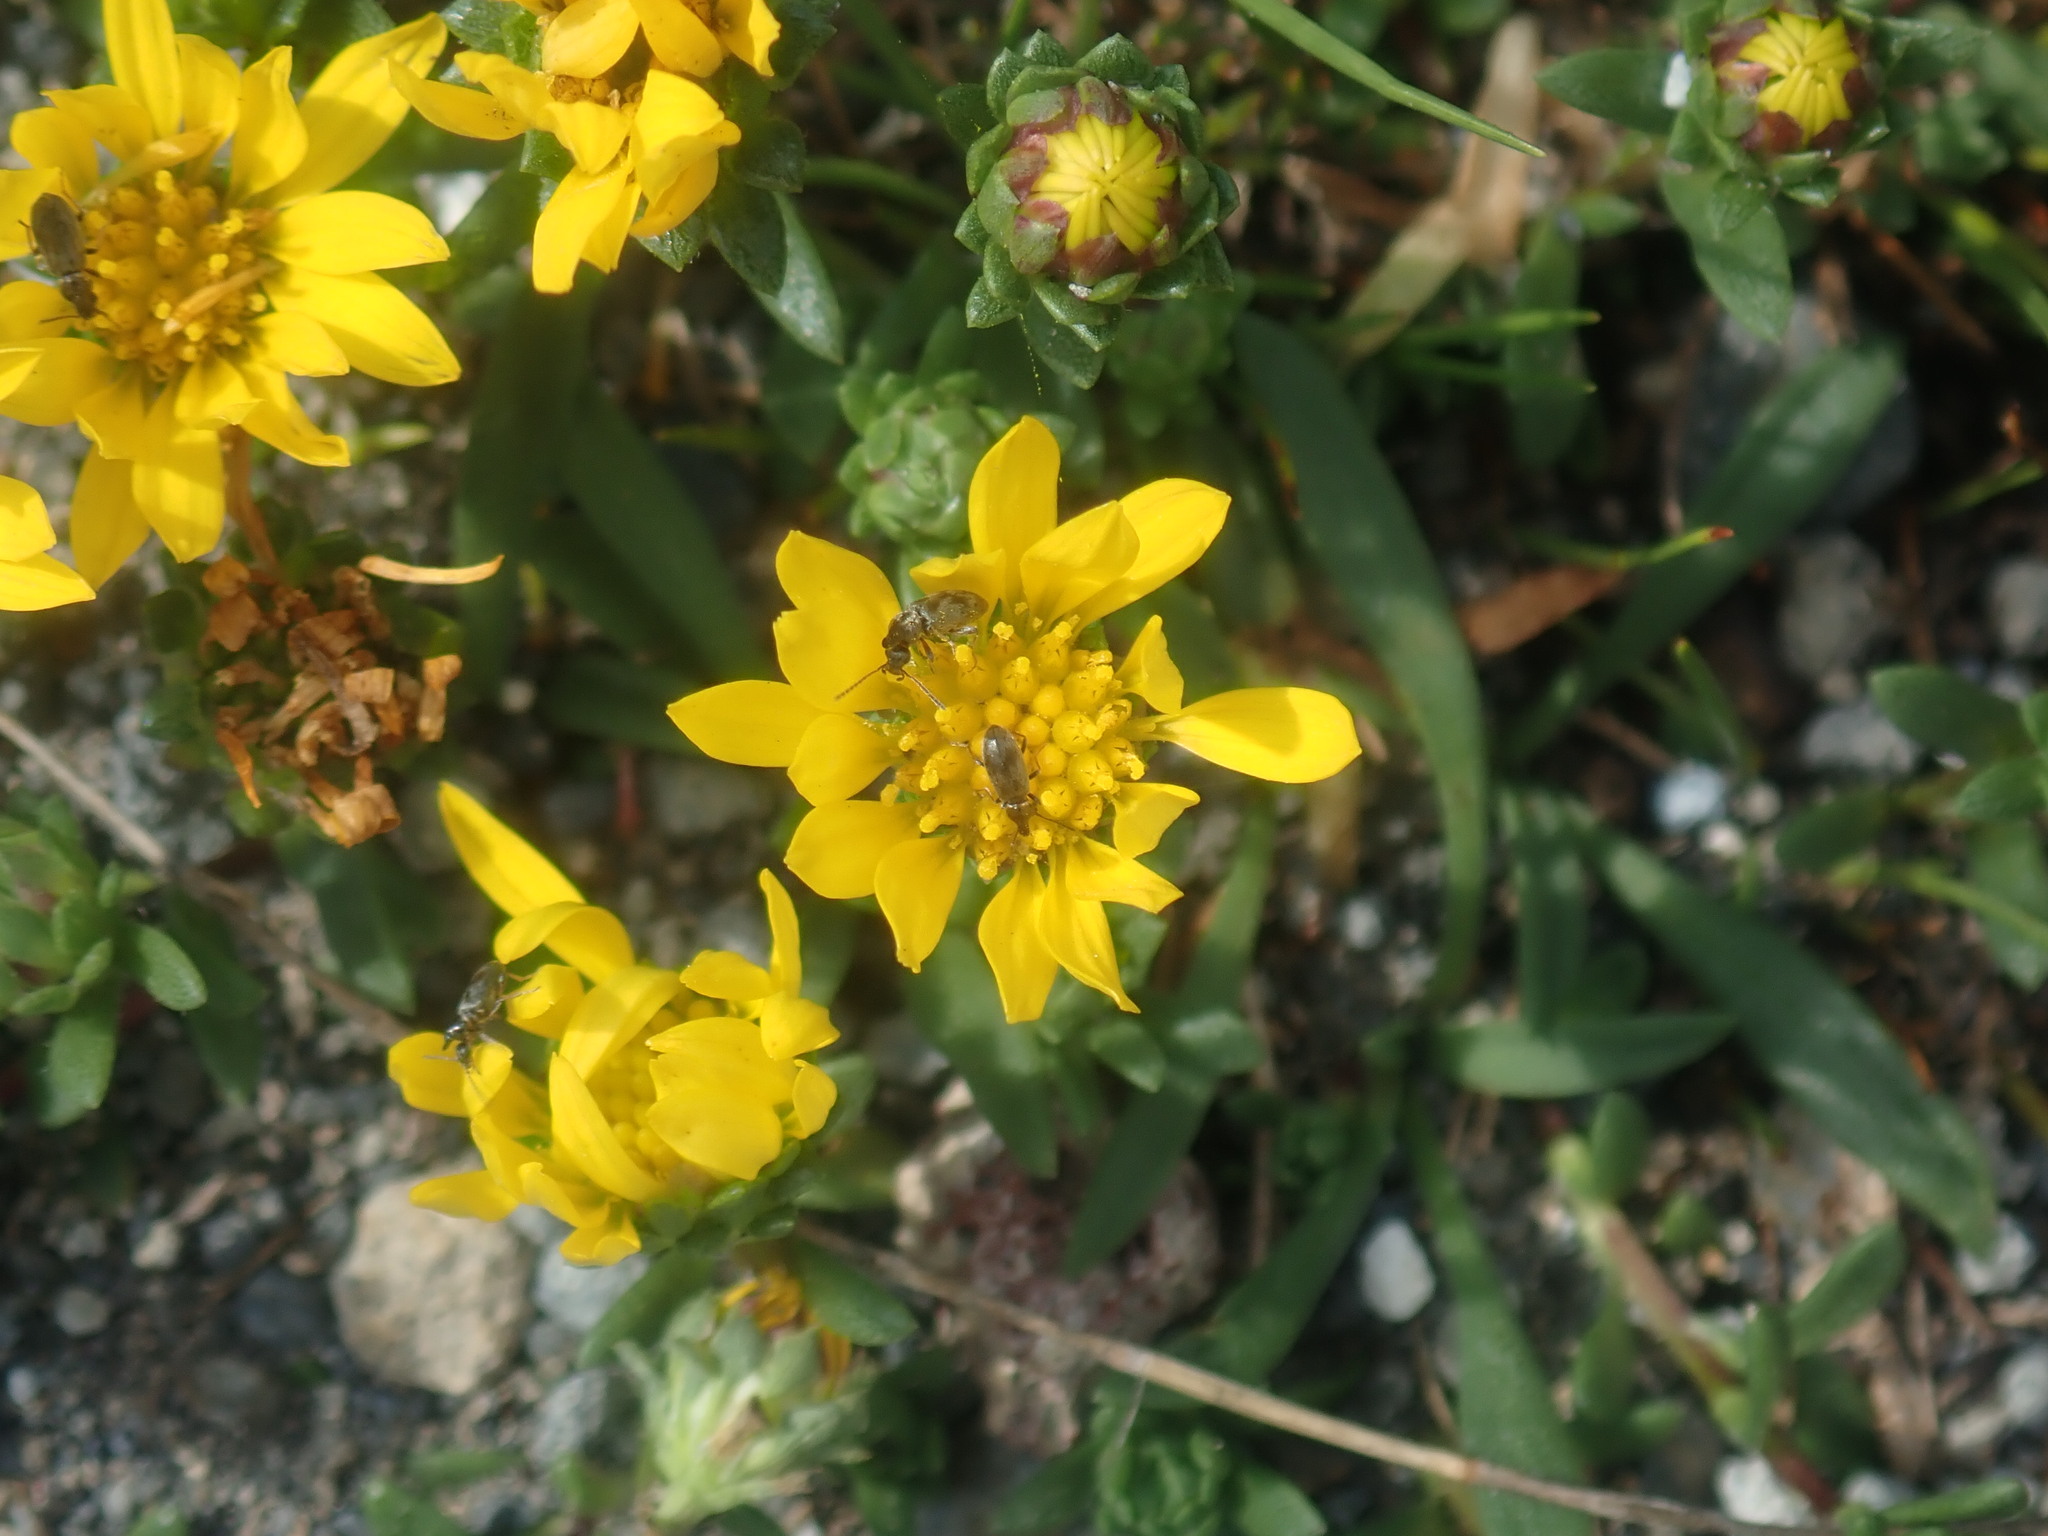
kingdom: Plantae
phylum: Tracheophyta
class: Magnoliopsida
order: Asterales
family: Asteraceae
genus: Xanthocephalum
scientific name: Xanthocephalum humile
